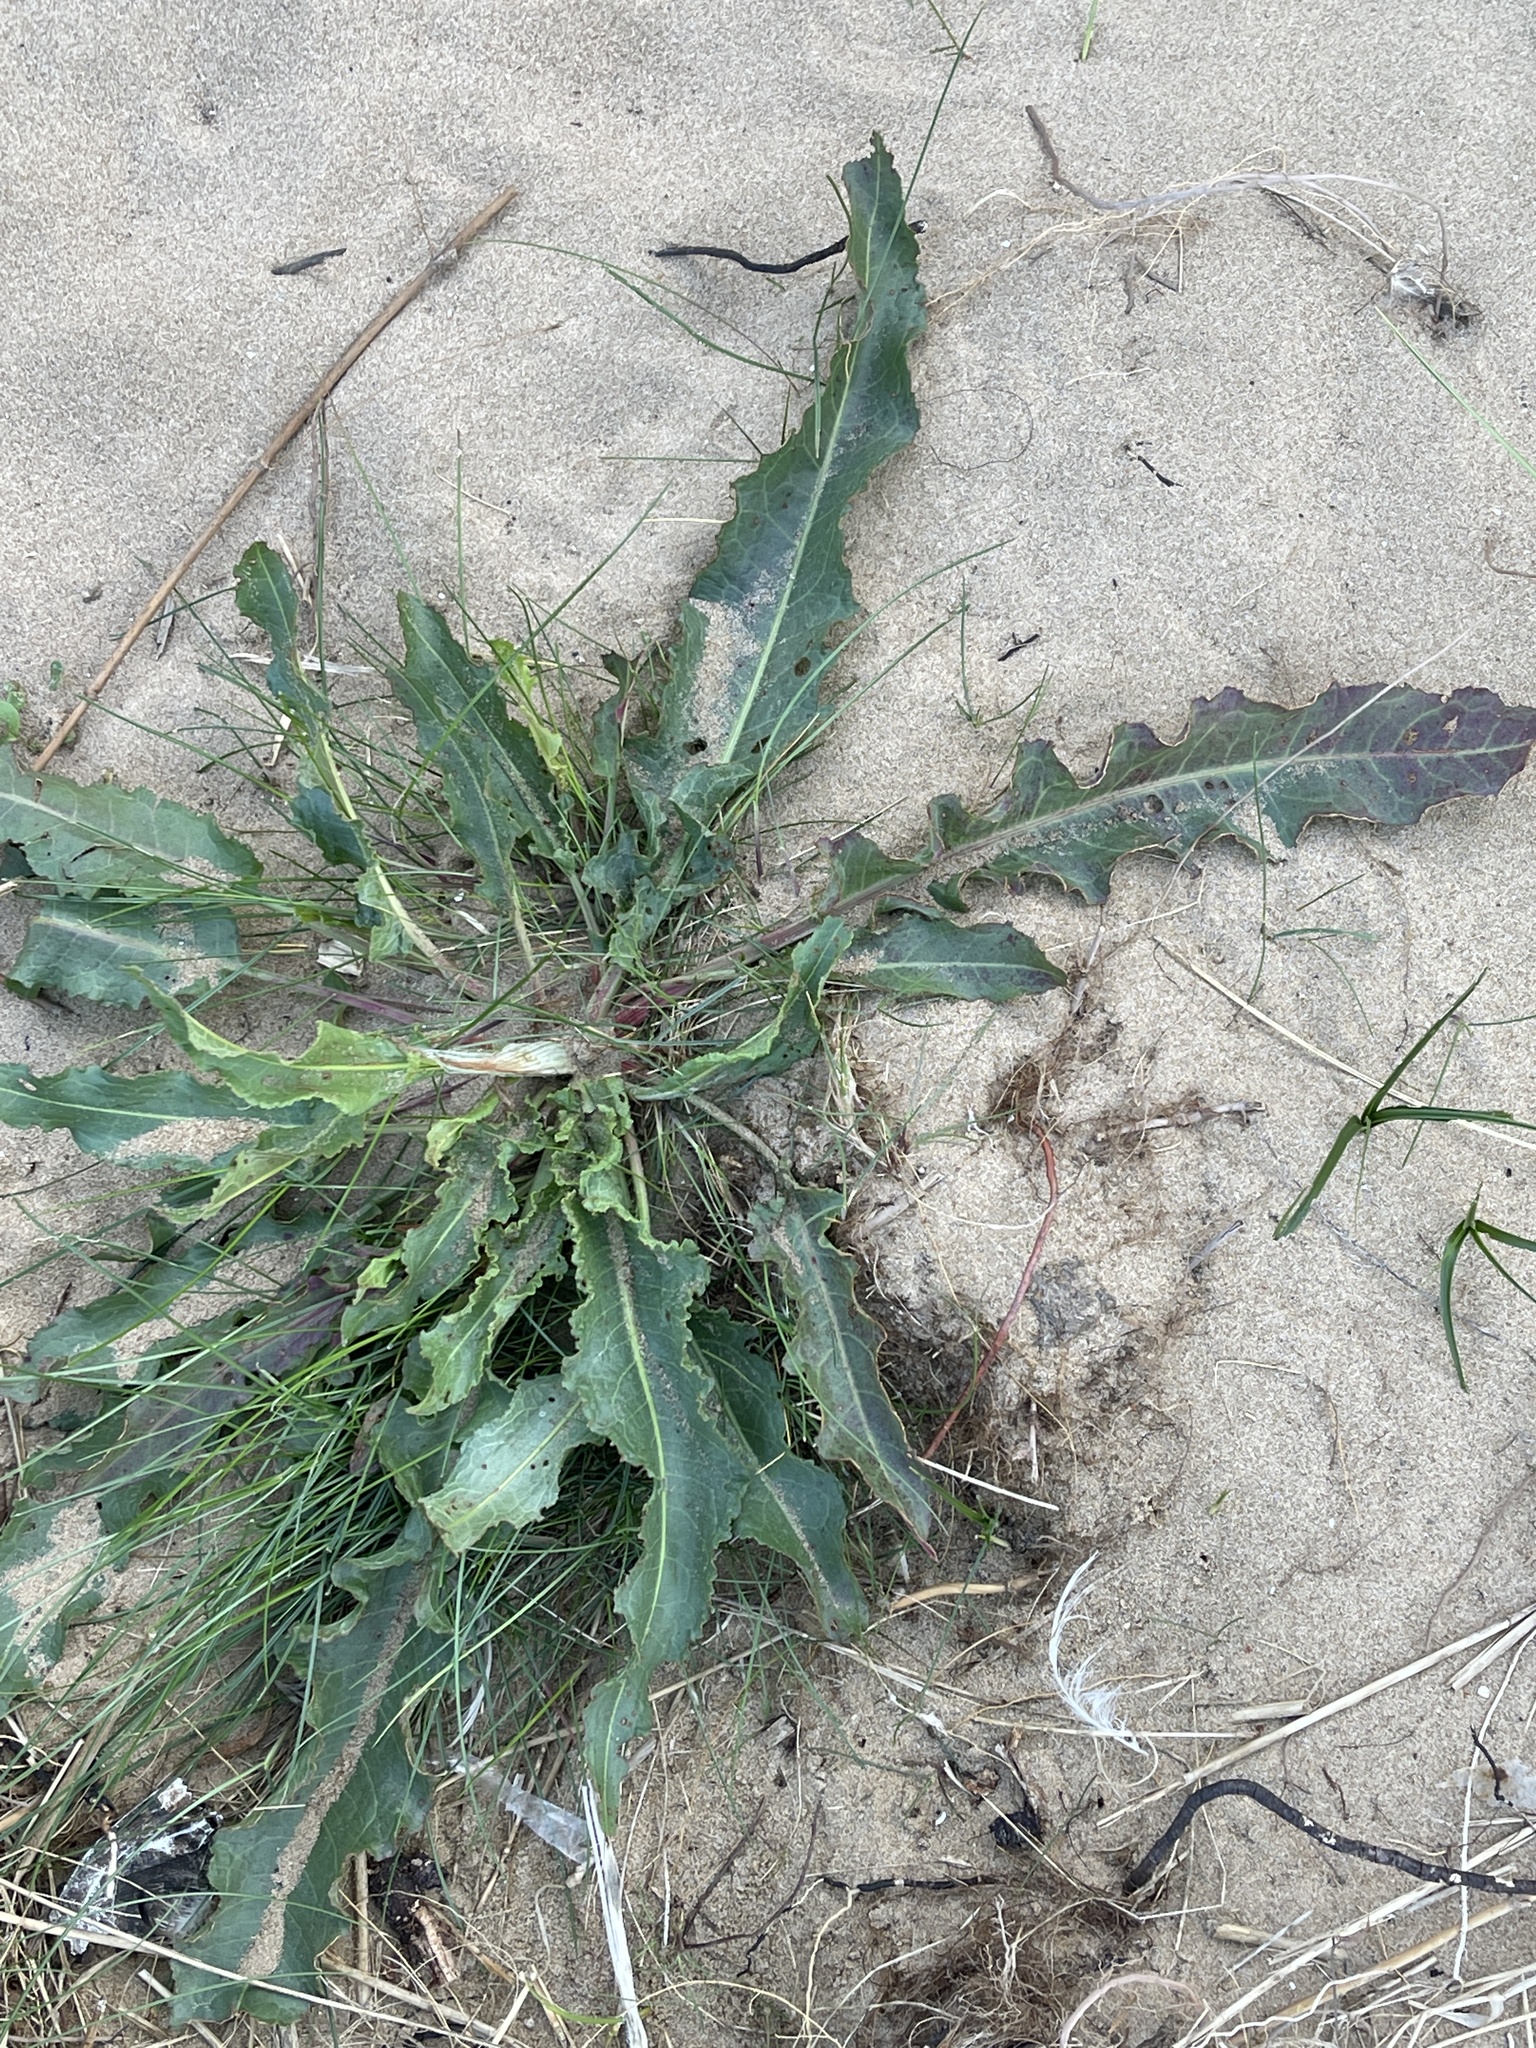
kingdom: Plantae
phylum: Tracheophyta
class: Magnoliopsida
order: Caryophyllales
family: Polygonaceae
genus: Rumex
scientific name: Rumex crispus
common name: Curled dock
